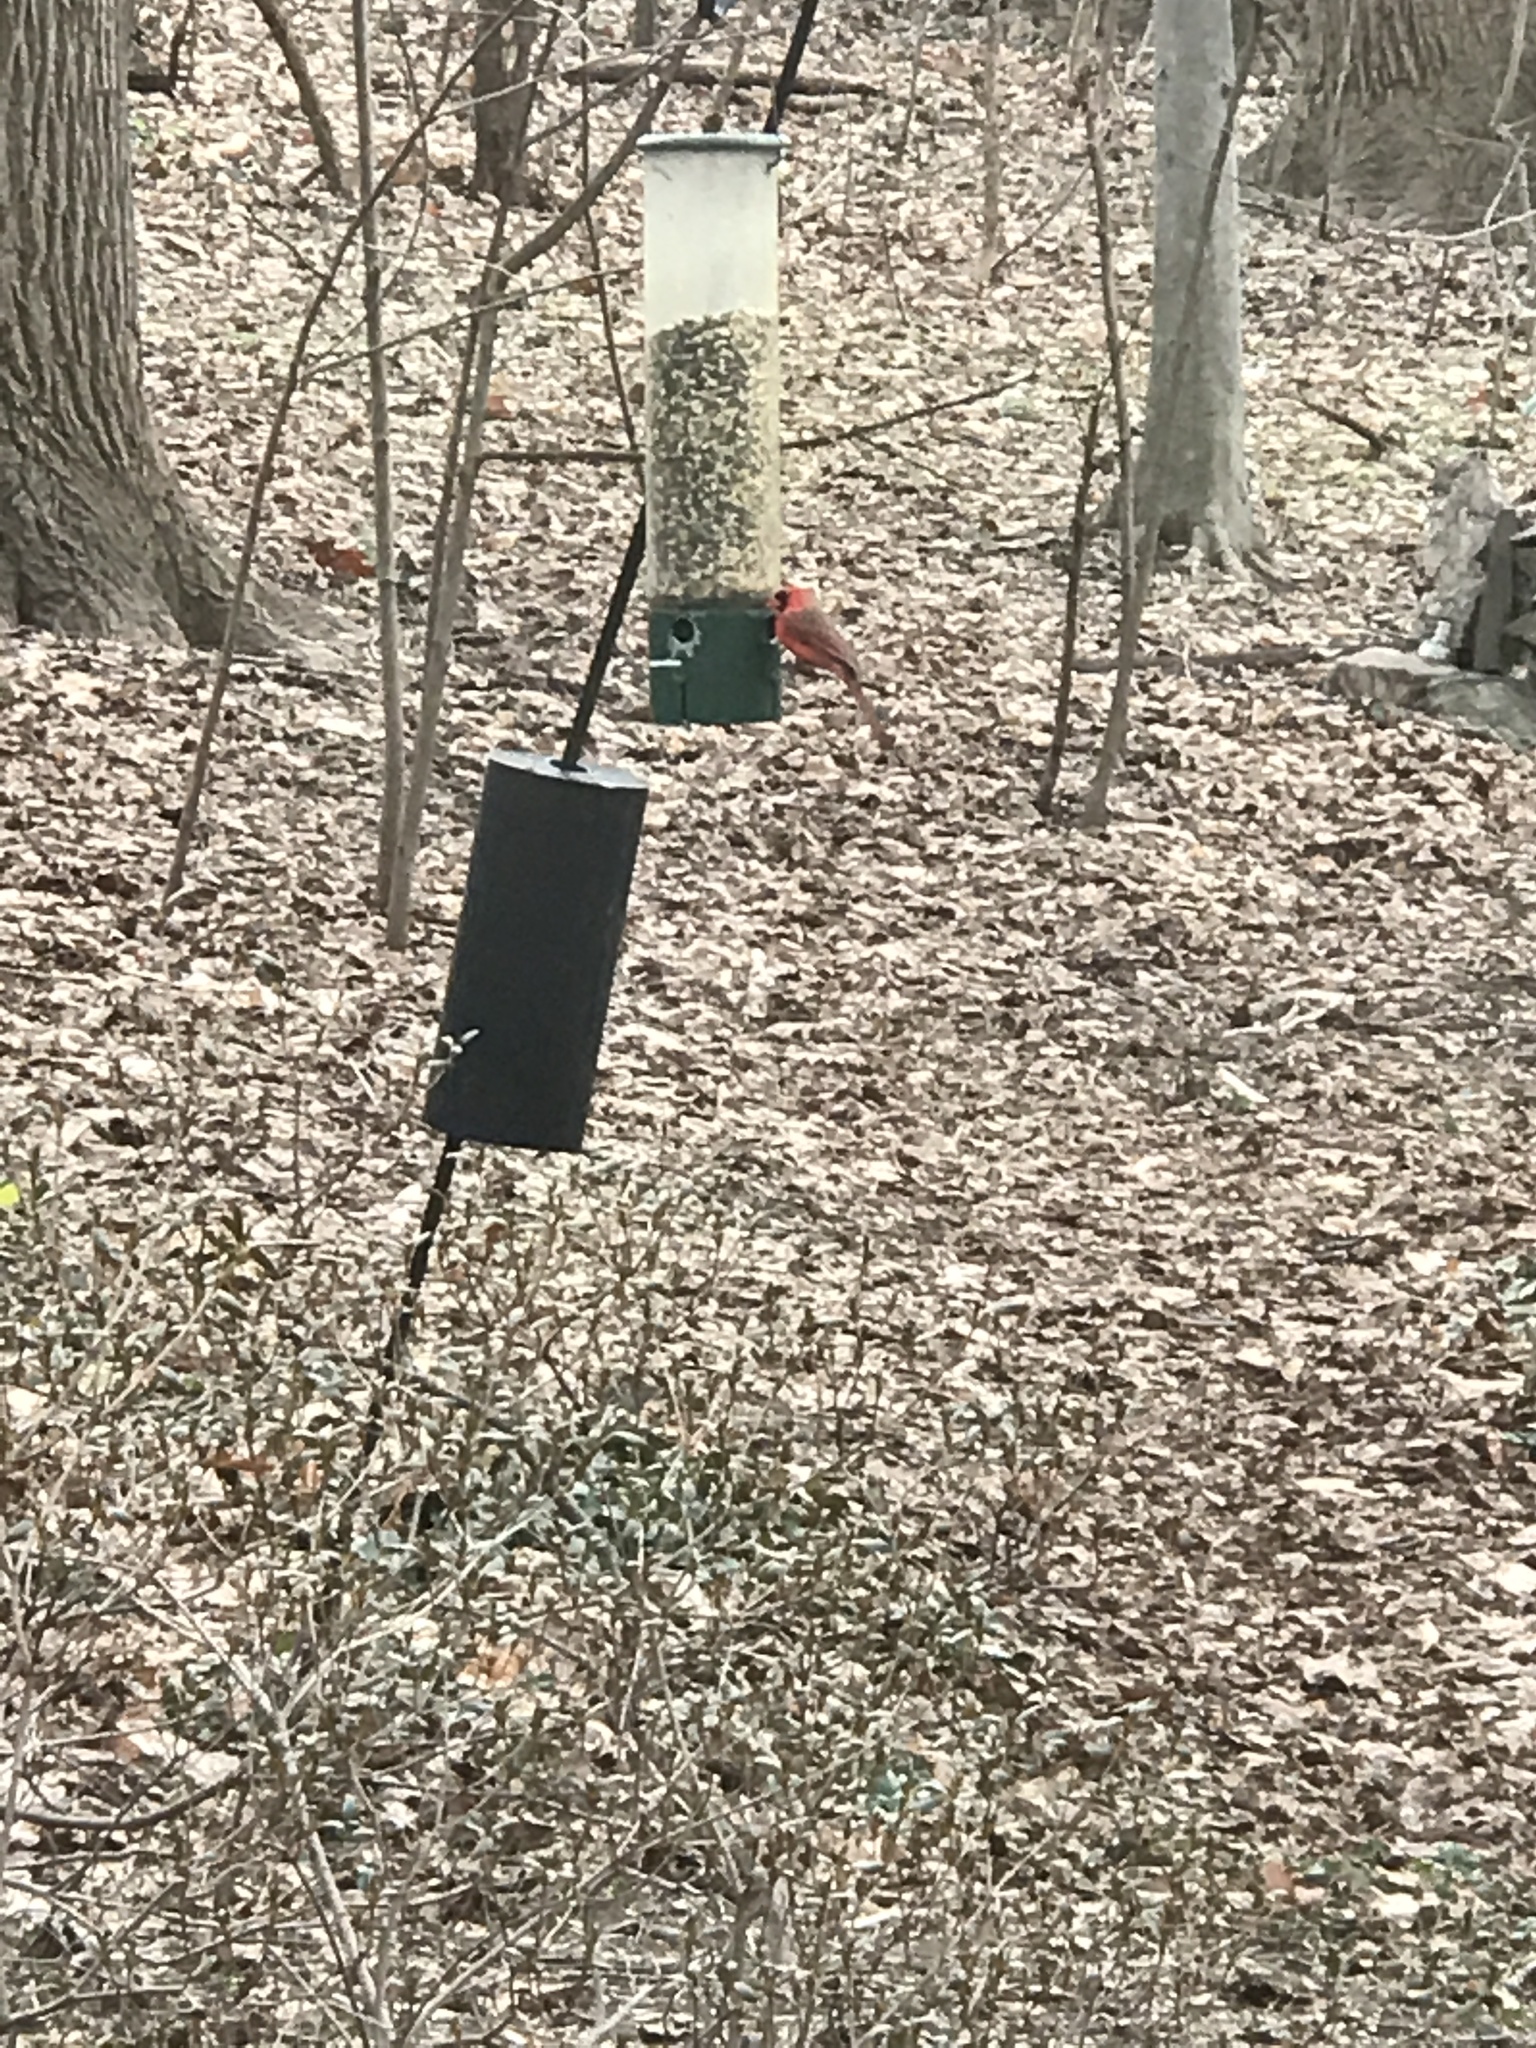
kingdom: Animalia
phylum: Chordata
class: Aves
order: Passeriformes
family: Cardinalidae
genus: Cardinalis
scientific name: Cardinalis cardinalis
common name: Northern cardinal
